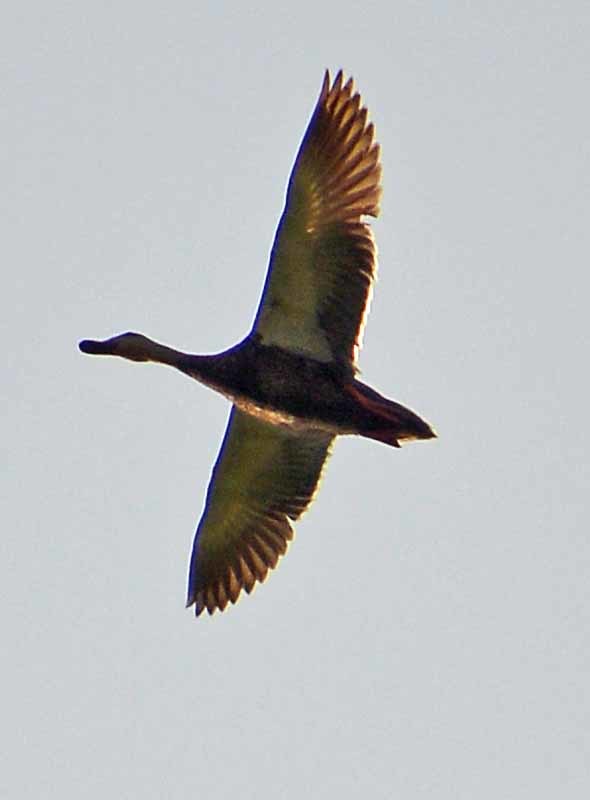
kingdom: Animalia
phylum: Chordata
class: Aves
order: Anseriformes
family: Anatidae
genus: Anas
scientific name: Anas diazi
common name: Mexican duck
